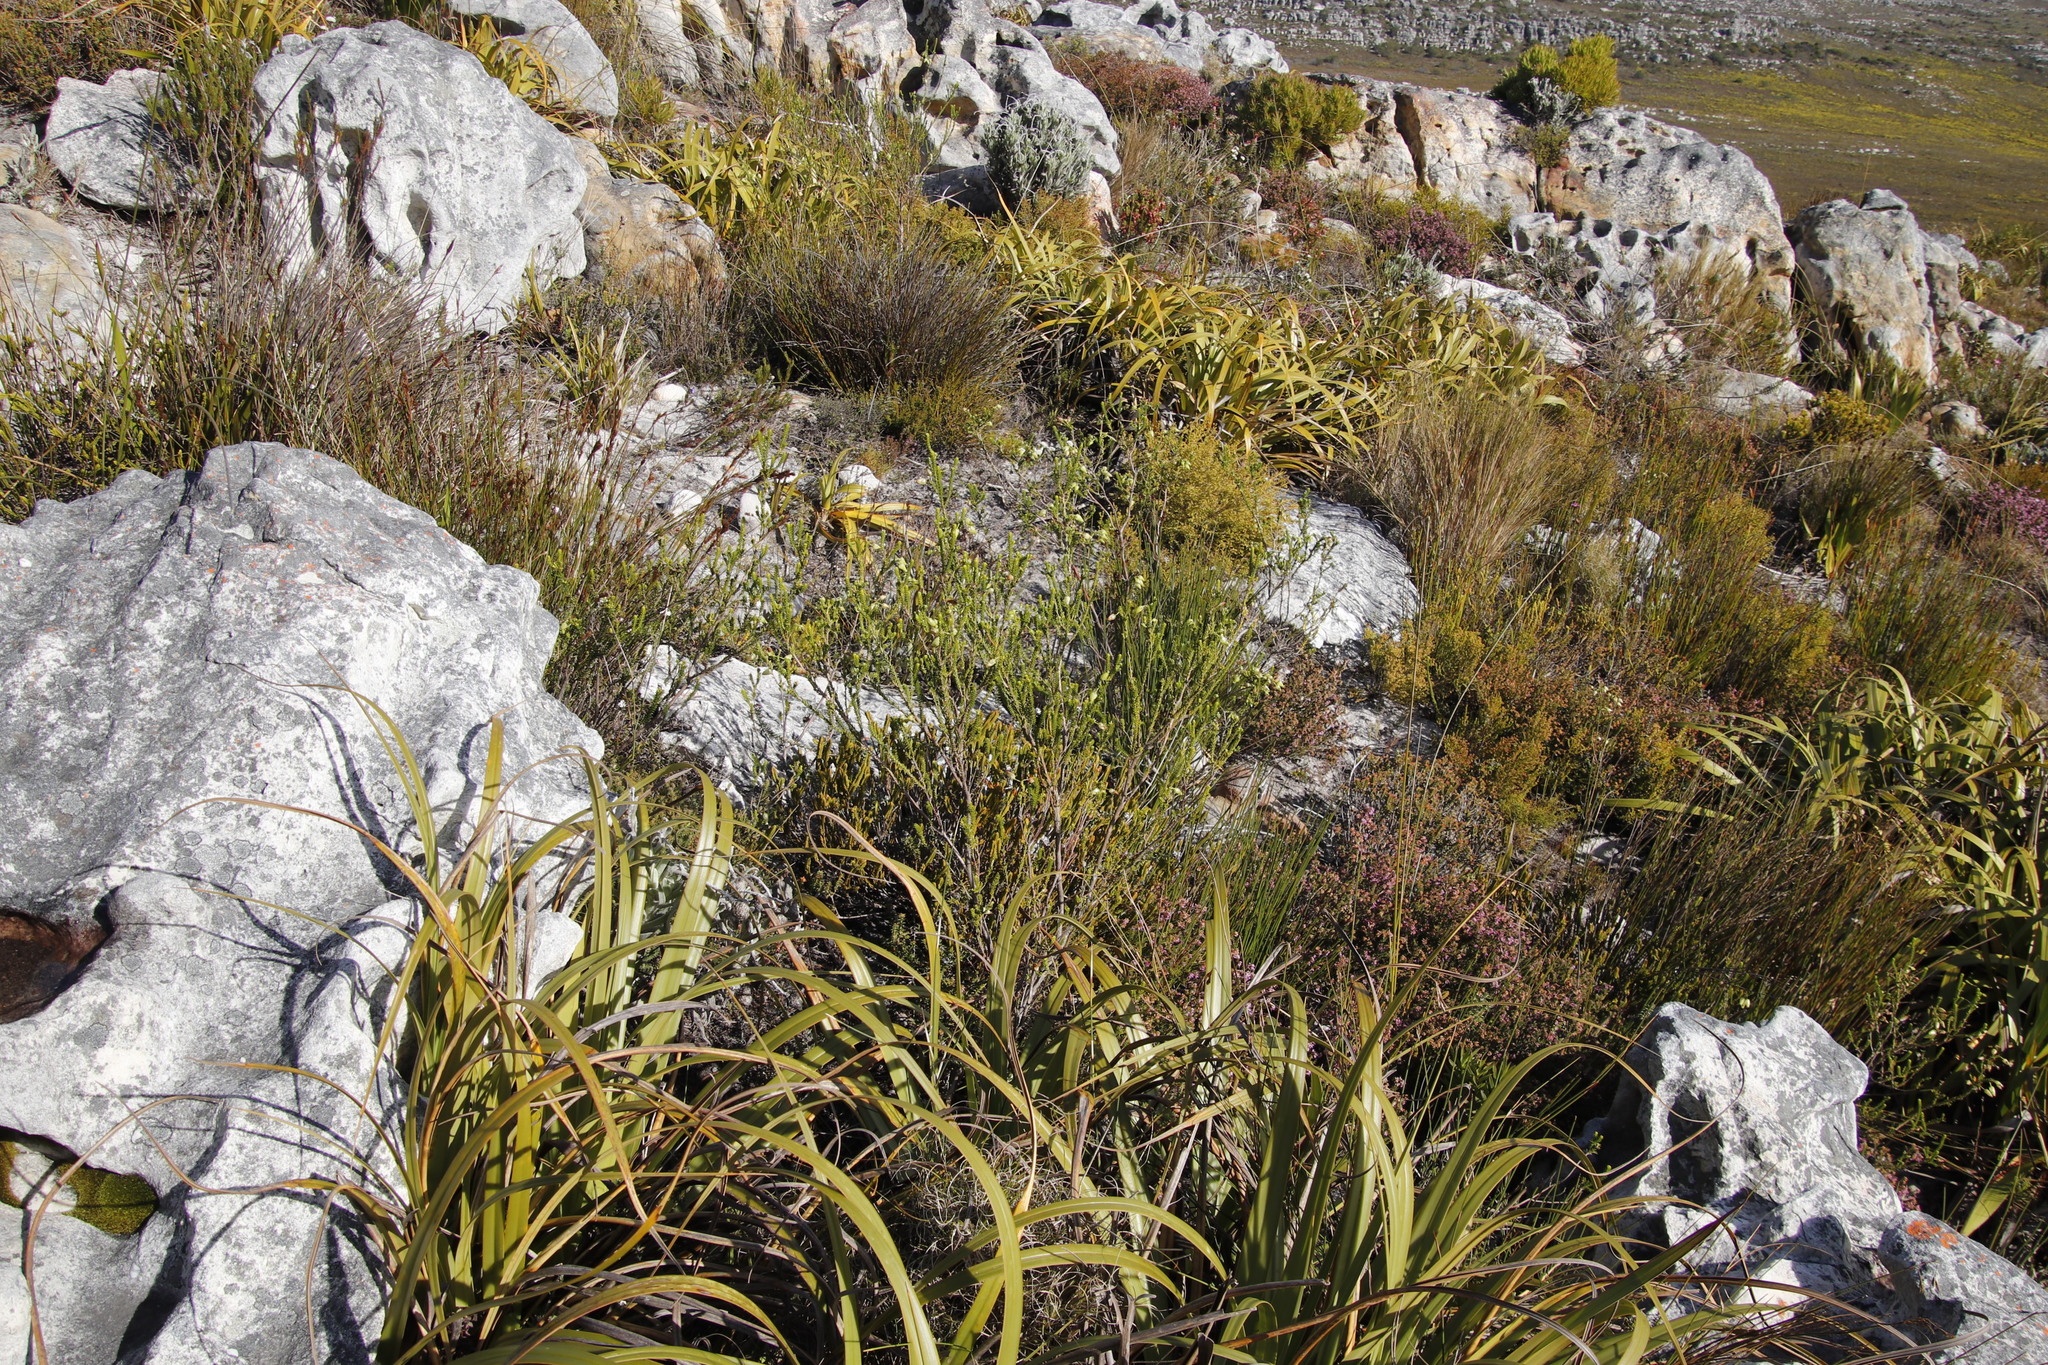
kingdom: Plantae
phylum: Tracheophyta
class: Magnoliopsida
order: Ericales
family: Ericaceae
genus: Erica
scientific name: Erica urna-viridis
